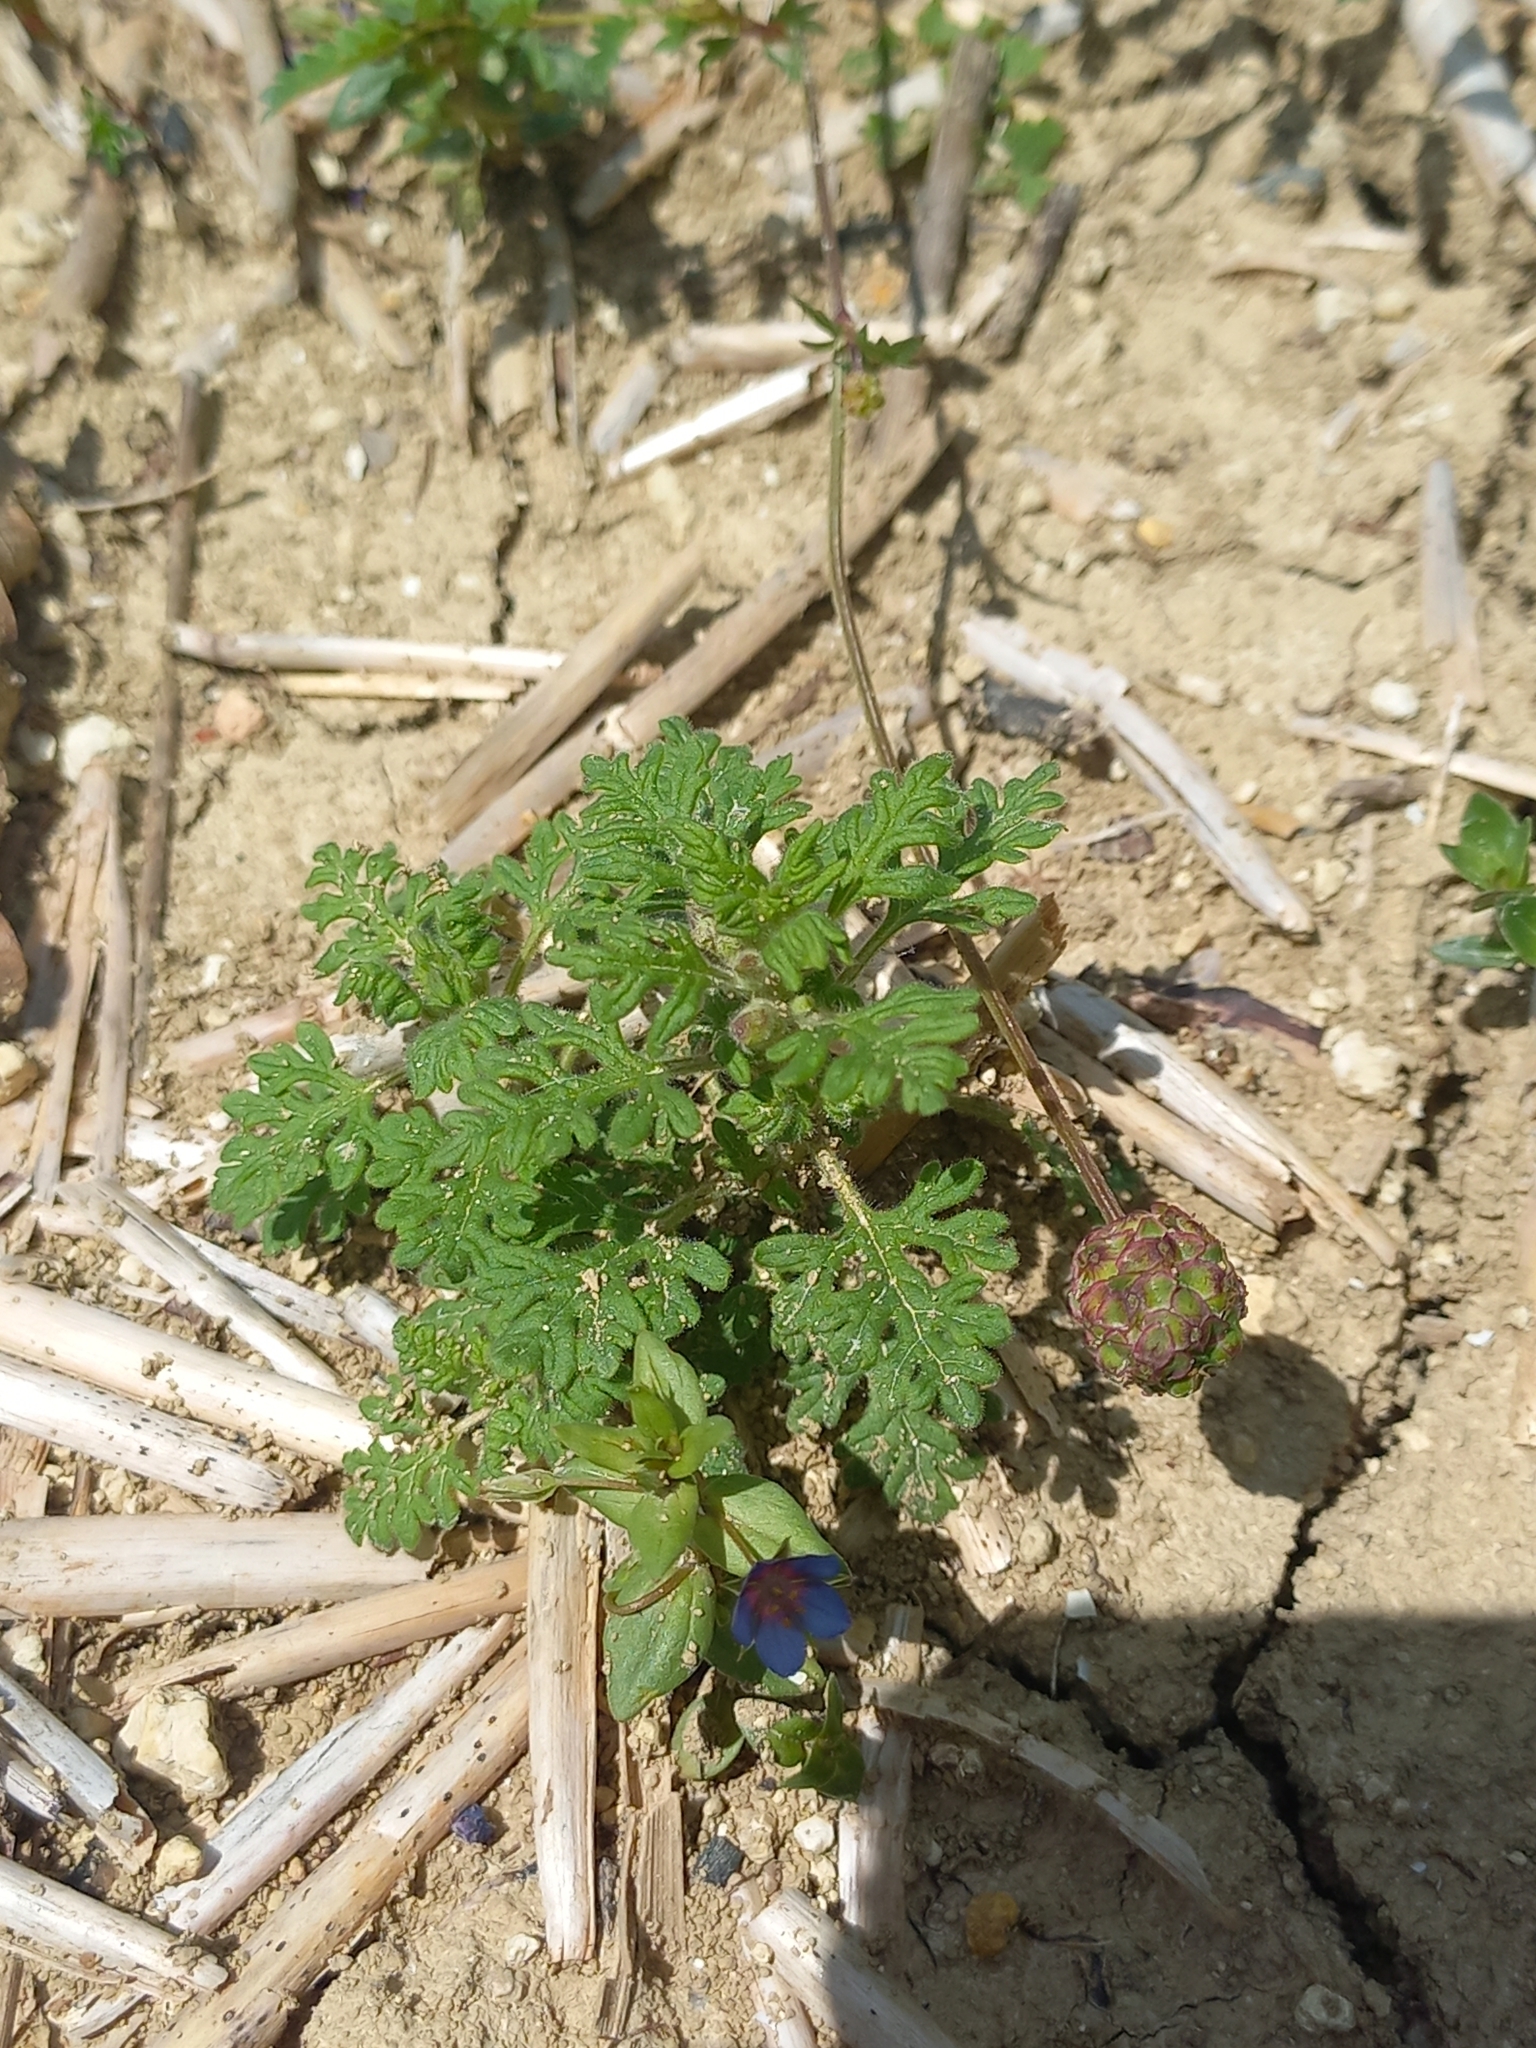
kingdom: Plantae
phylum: Tracheophyta
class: Magnoliopsida
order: Lamiales
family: Lamiaceae
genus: Teucrium
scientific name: Teucrium botrys
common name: Cut-leaved germander
